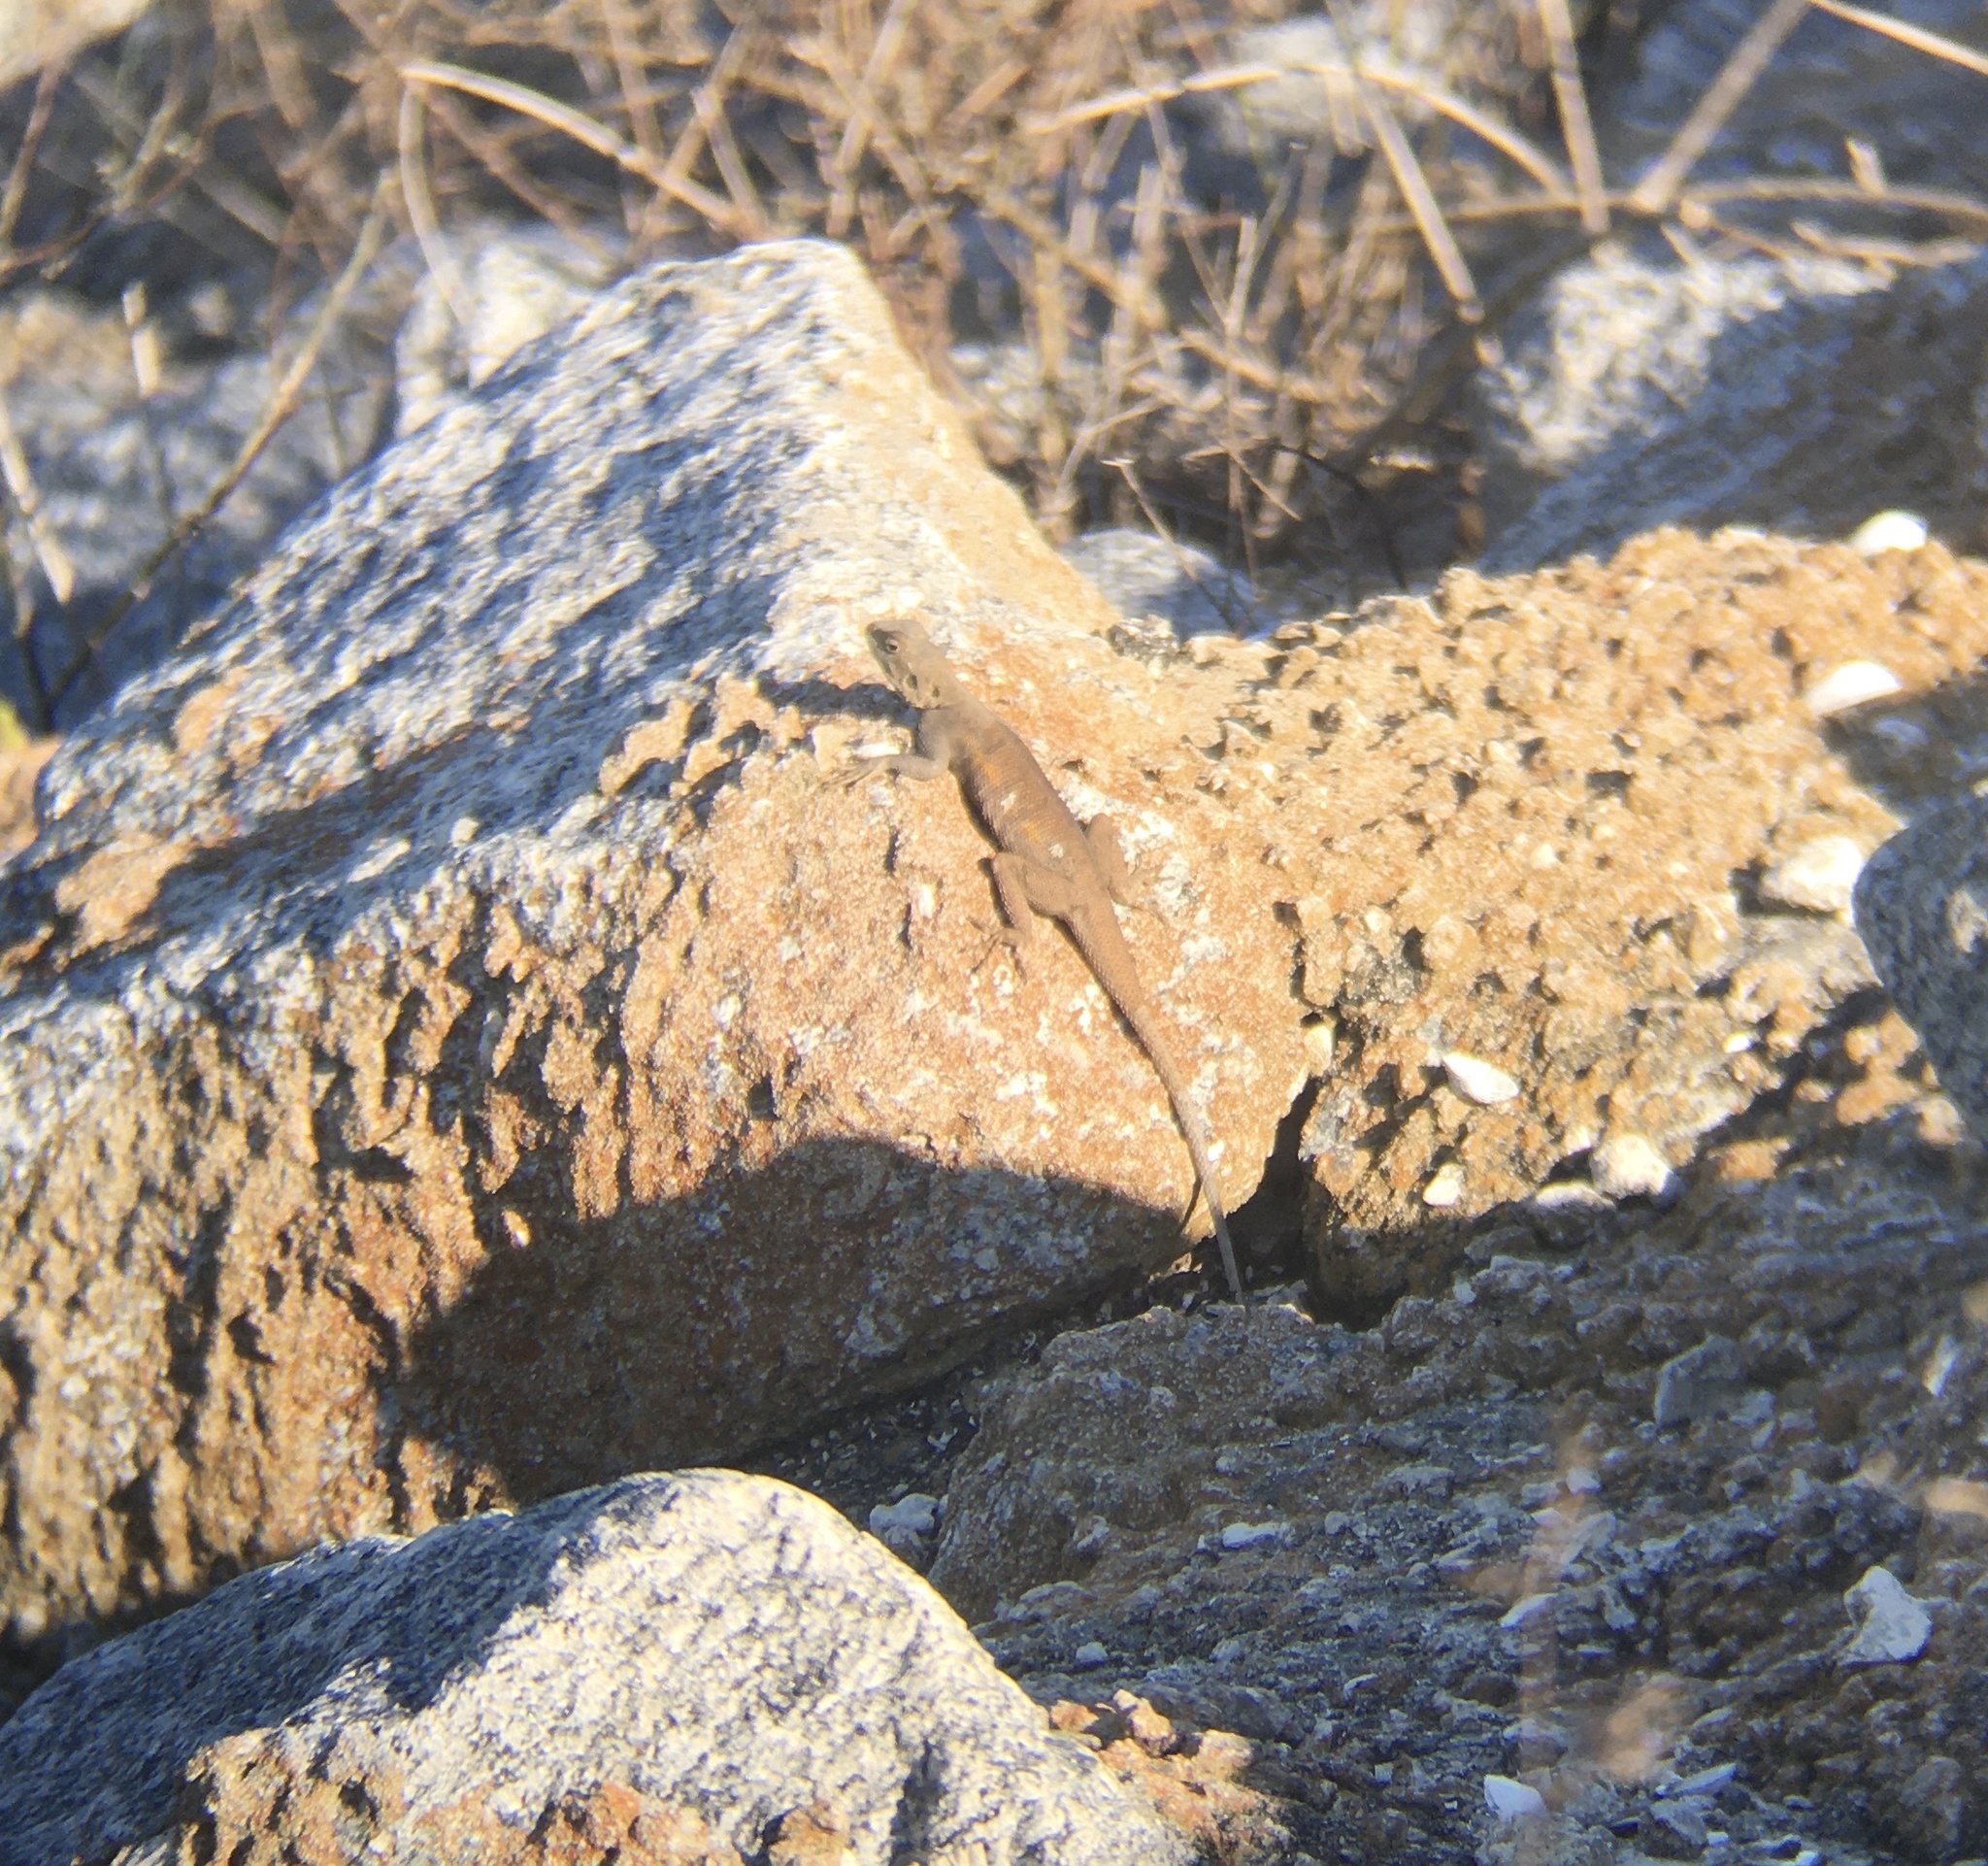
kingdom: Animalia
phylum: Chordata
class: Squamata
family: Agamidae
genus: Agama
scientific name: Agama picticauda
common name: Red-headed agama
